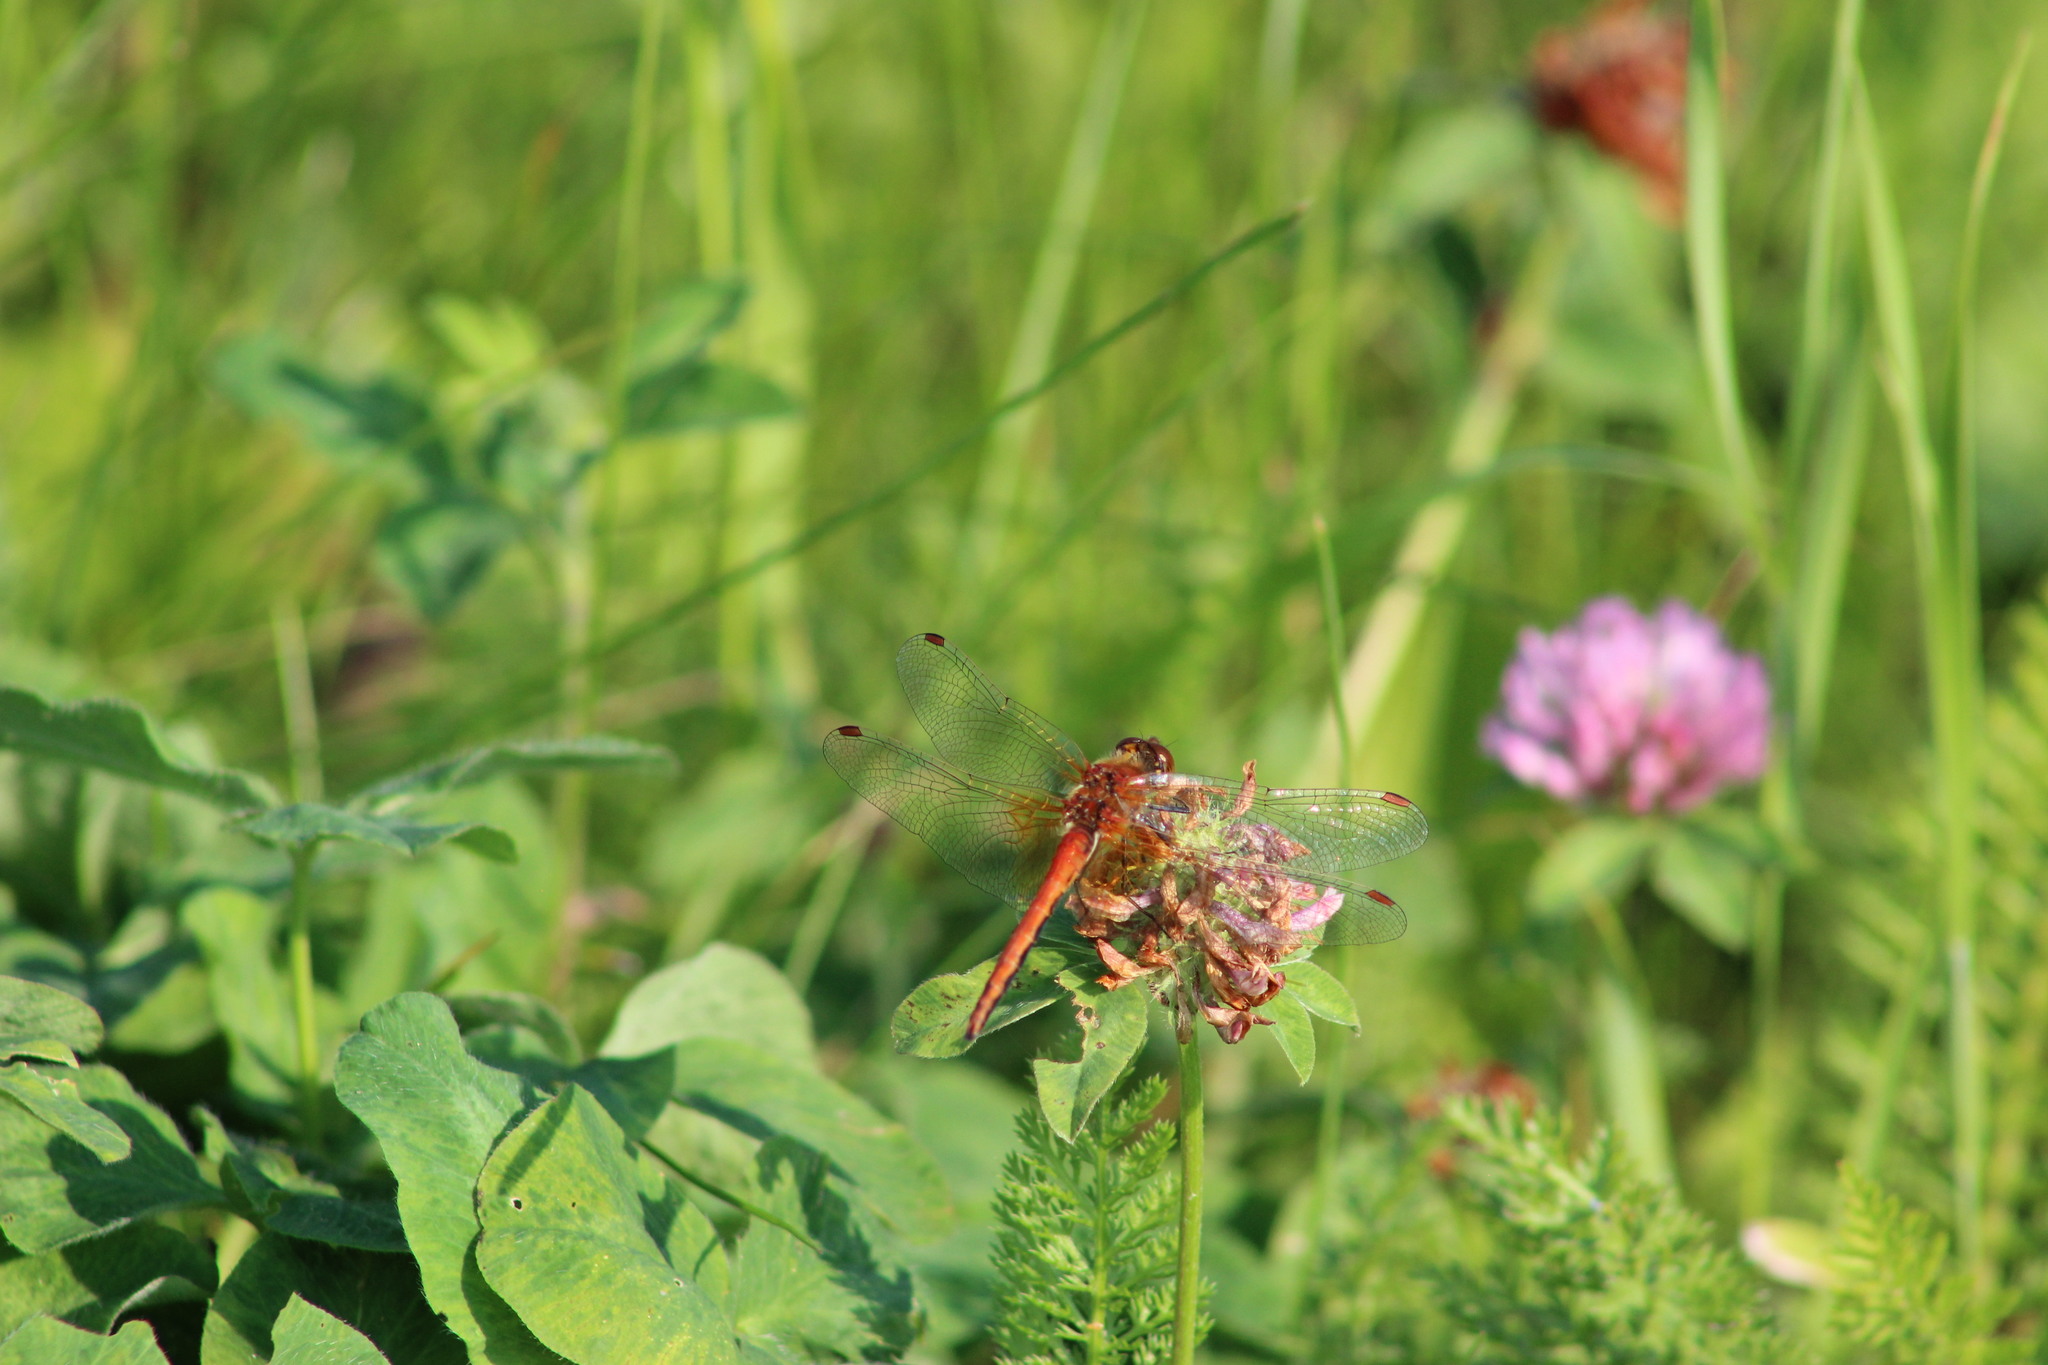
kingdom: Animalia
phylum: Arthropoda
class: Insecta
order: Odonata
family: Libellulidae
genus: Sympetrum
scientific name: Sympetrum flaveolum
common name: Yellow-winged darter
